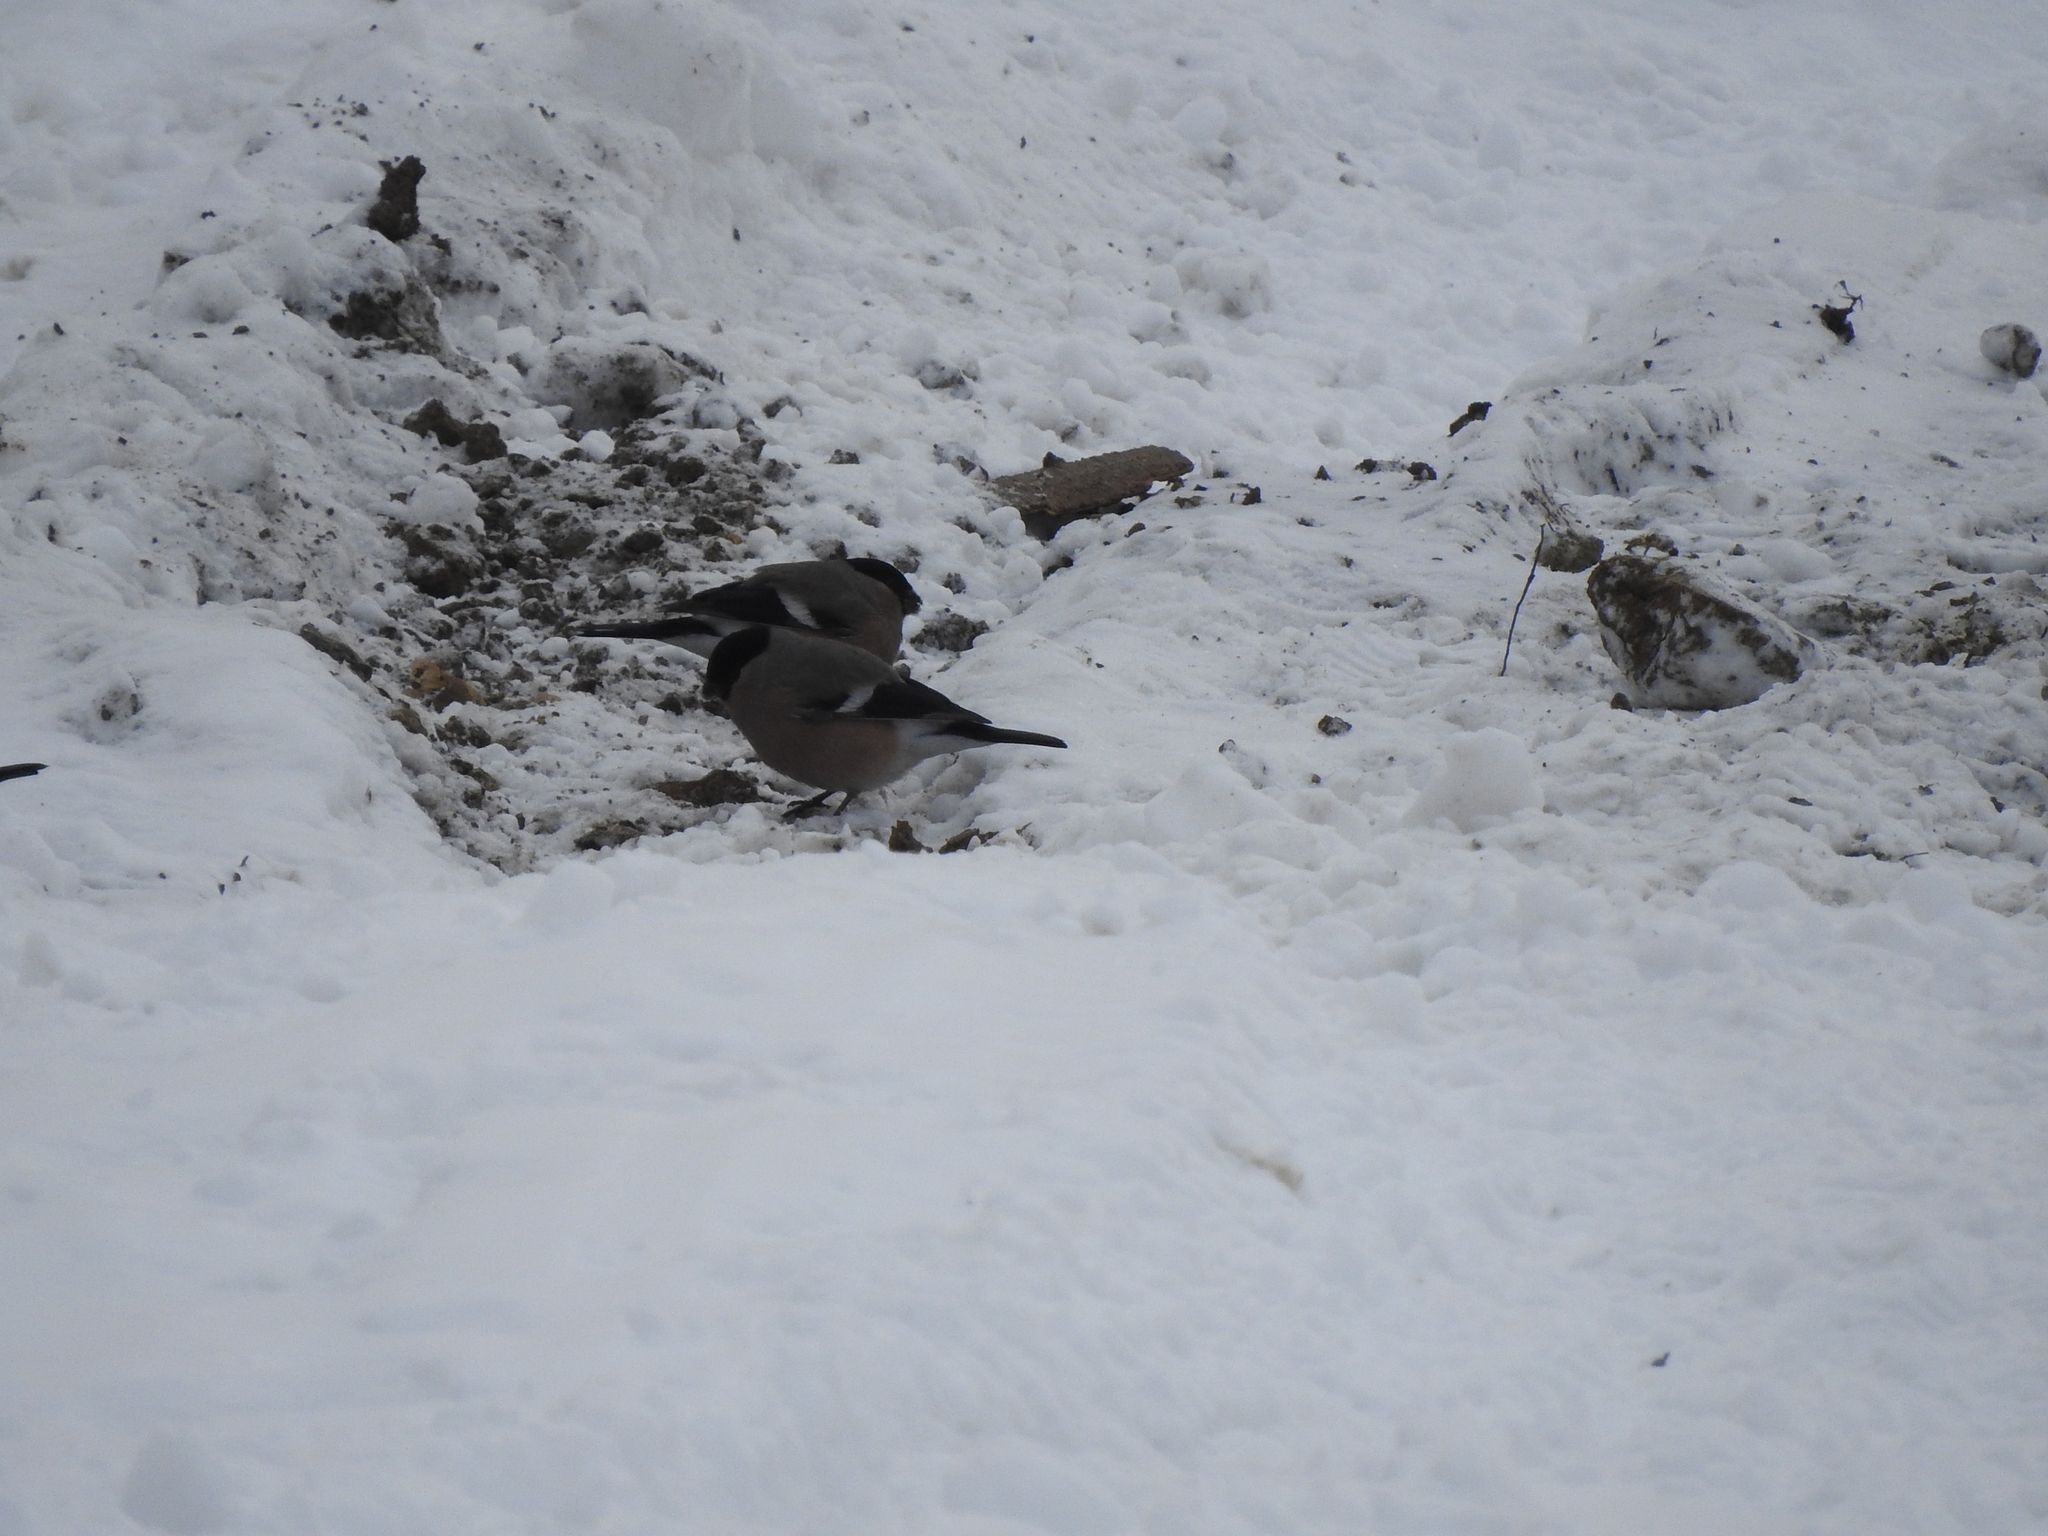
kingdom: Animalia
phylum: Chordata
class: Aves
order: Passeriformes
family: Fringillidae
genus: Pyrrhula
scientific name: Pyrrhula pyrrhula
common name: Eurasian bullfinch
